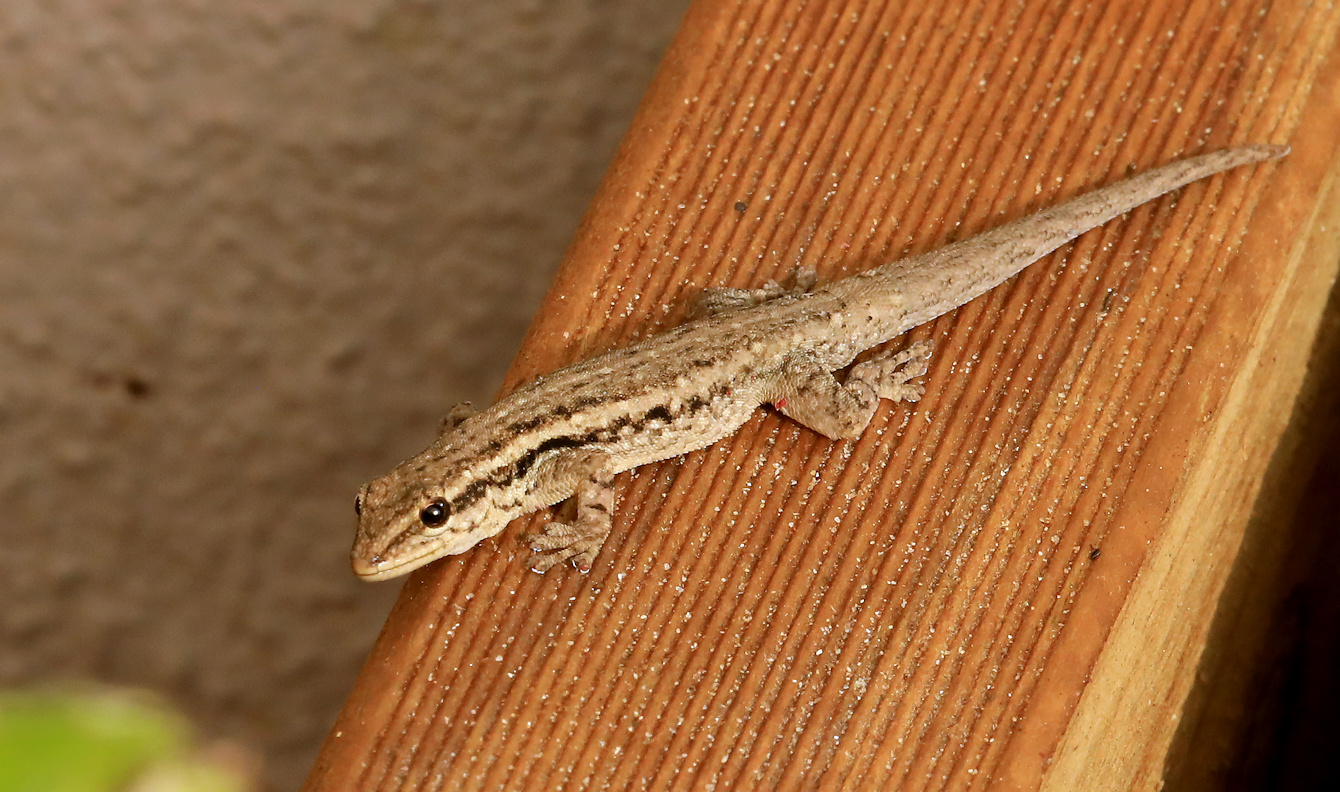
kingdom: Animalia
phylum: Chordata
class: Squamata
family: Gekkonidae
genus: Lygodactylus
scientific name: Lygodactylus capensis
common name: Cape dwarf gecko
